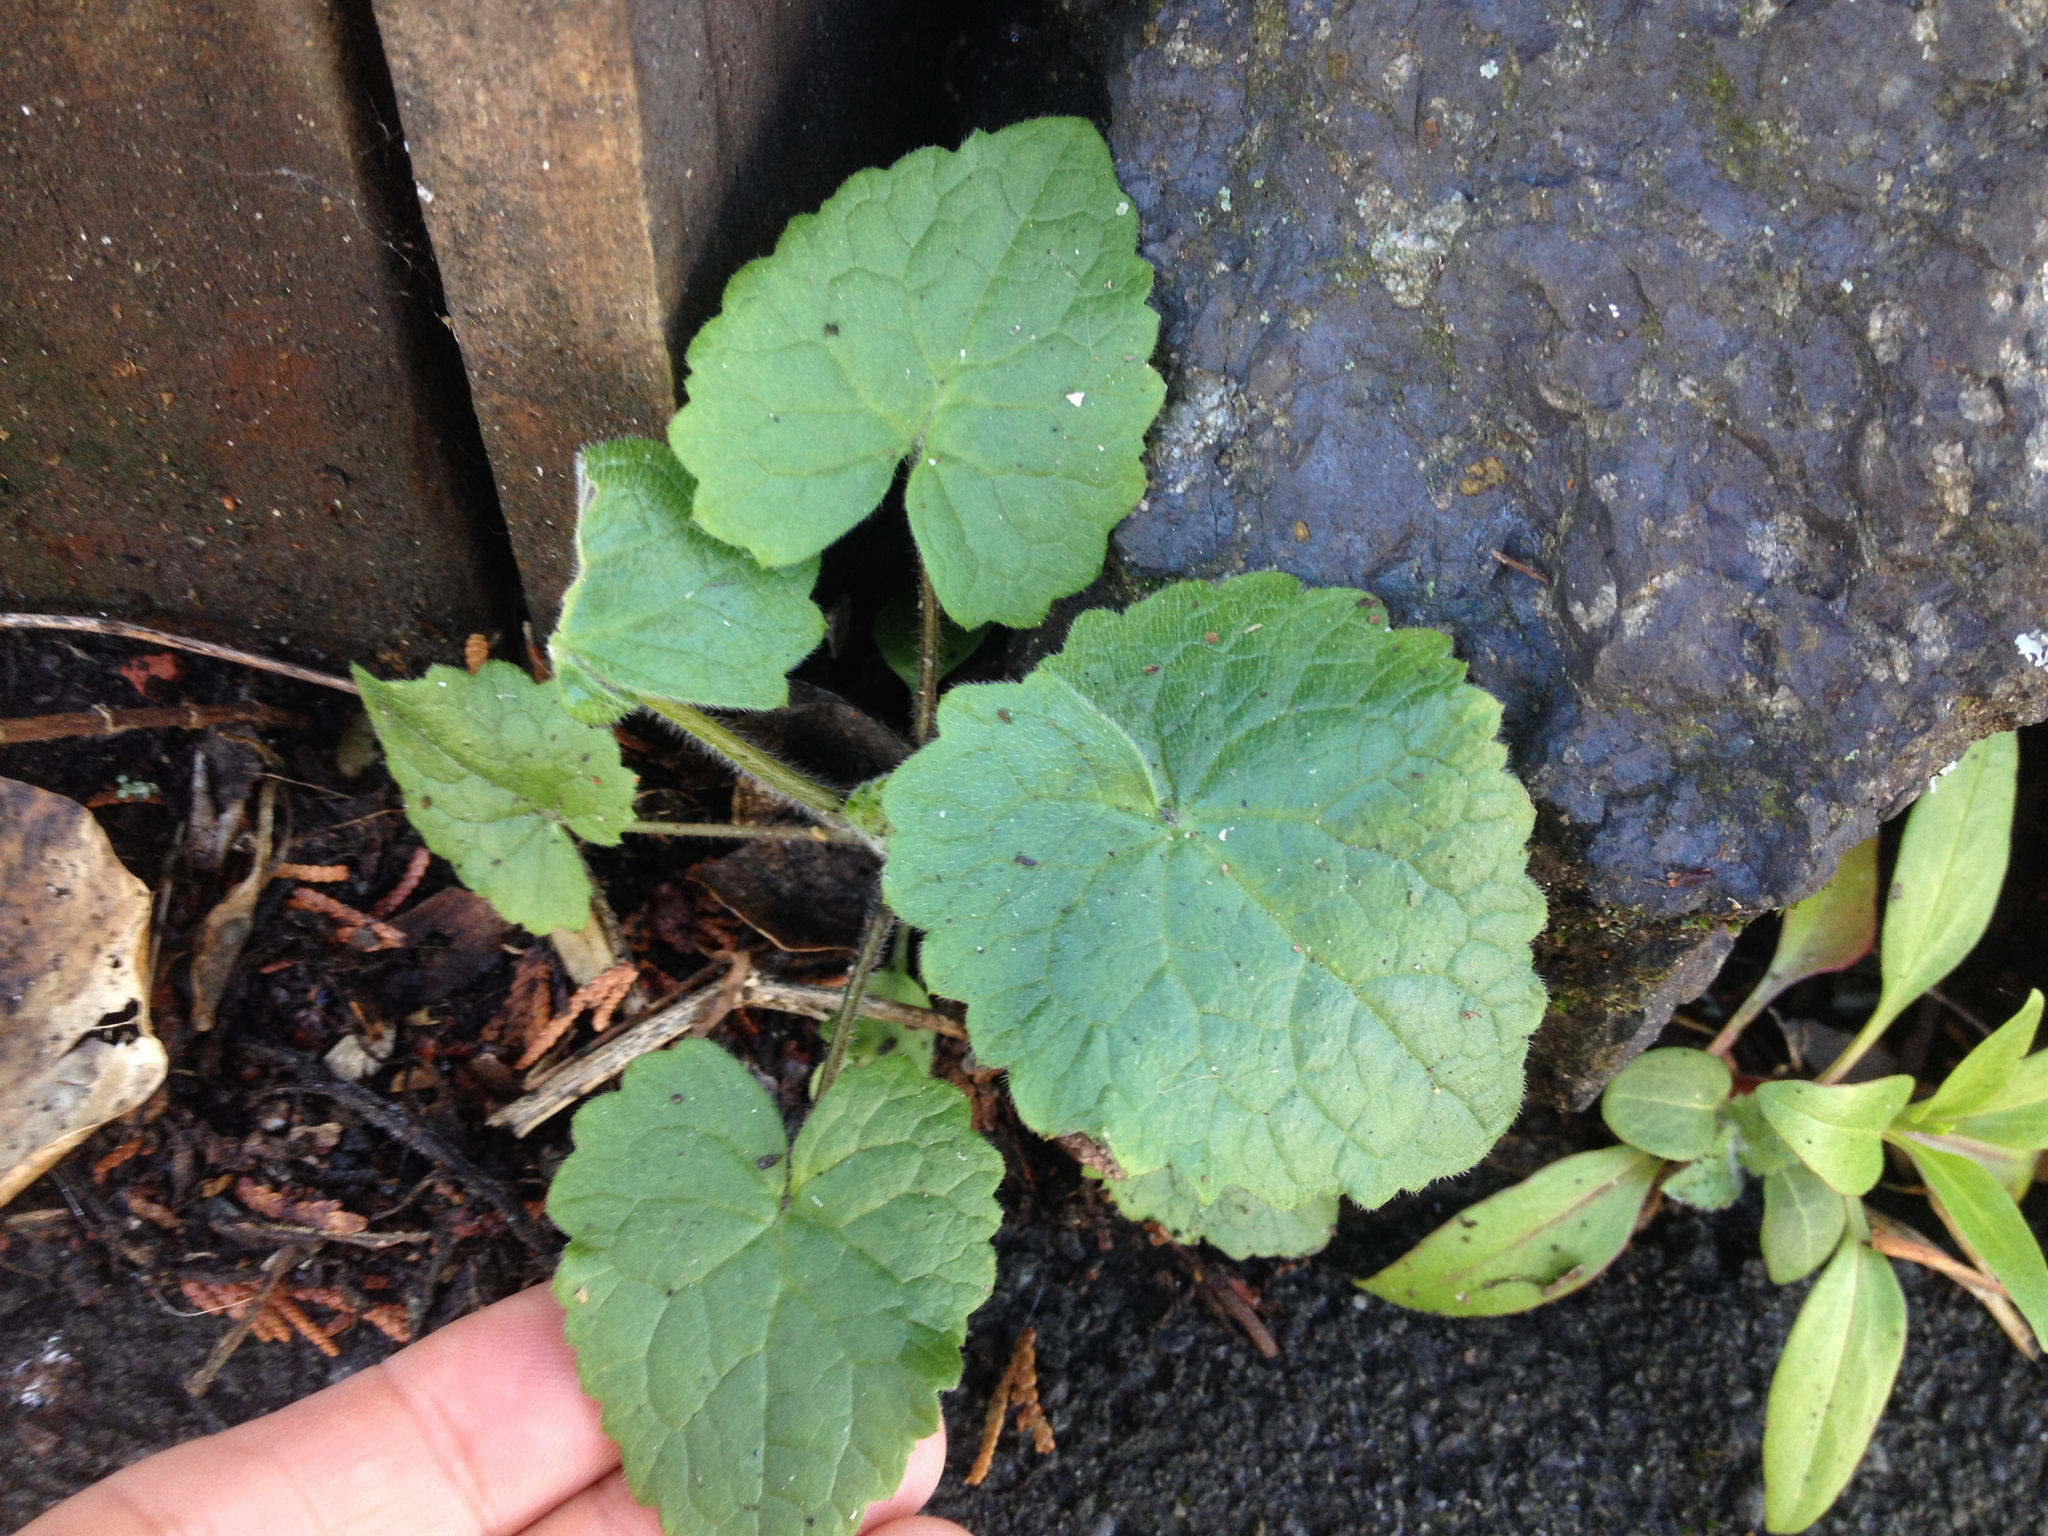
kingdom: Plantae
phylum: Tracheophyta
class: Magnoliopsida
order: Brassicales
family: Brassicaceae
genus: Lunaria
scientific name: Lunaria annua
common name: Honesty
